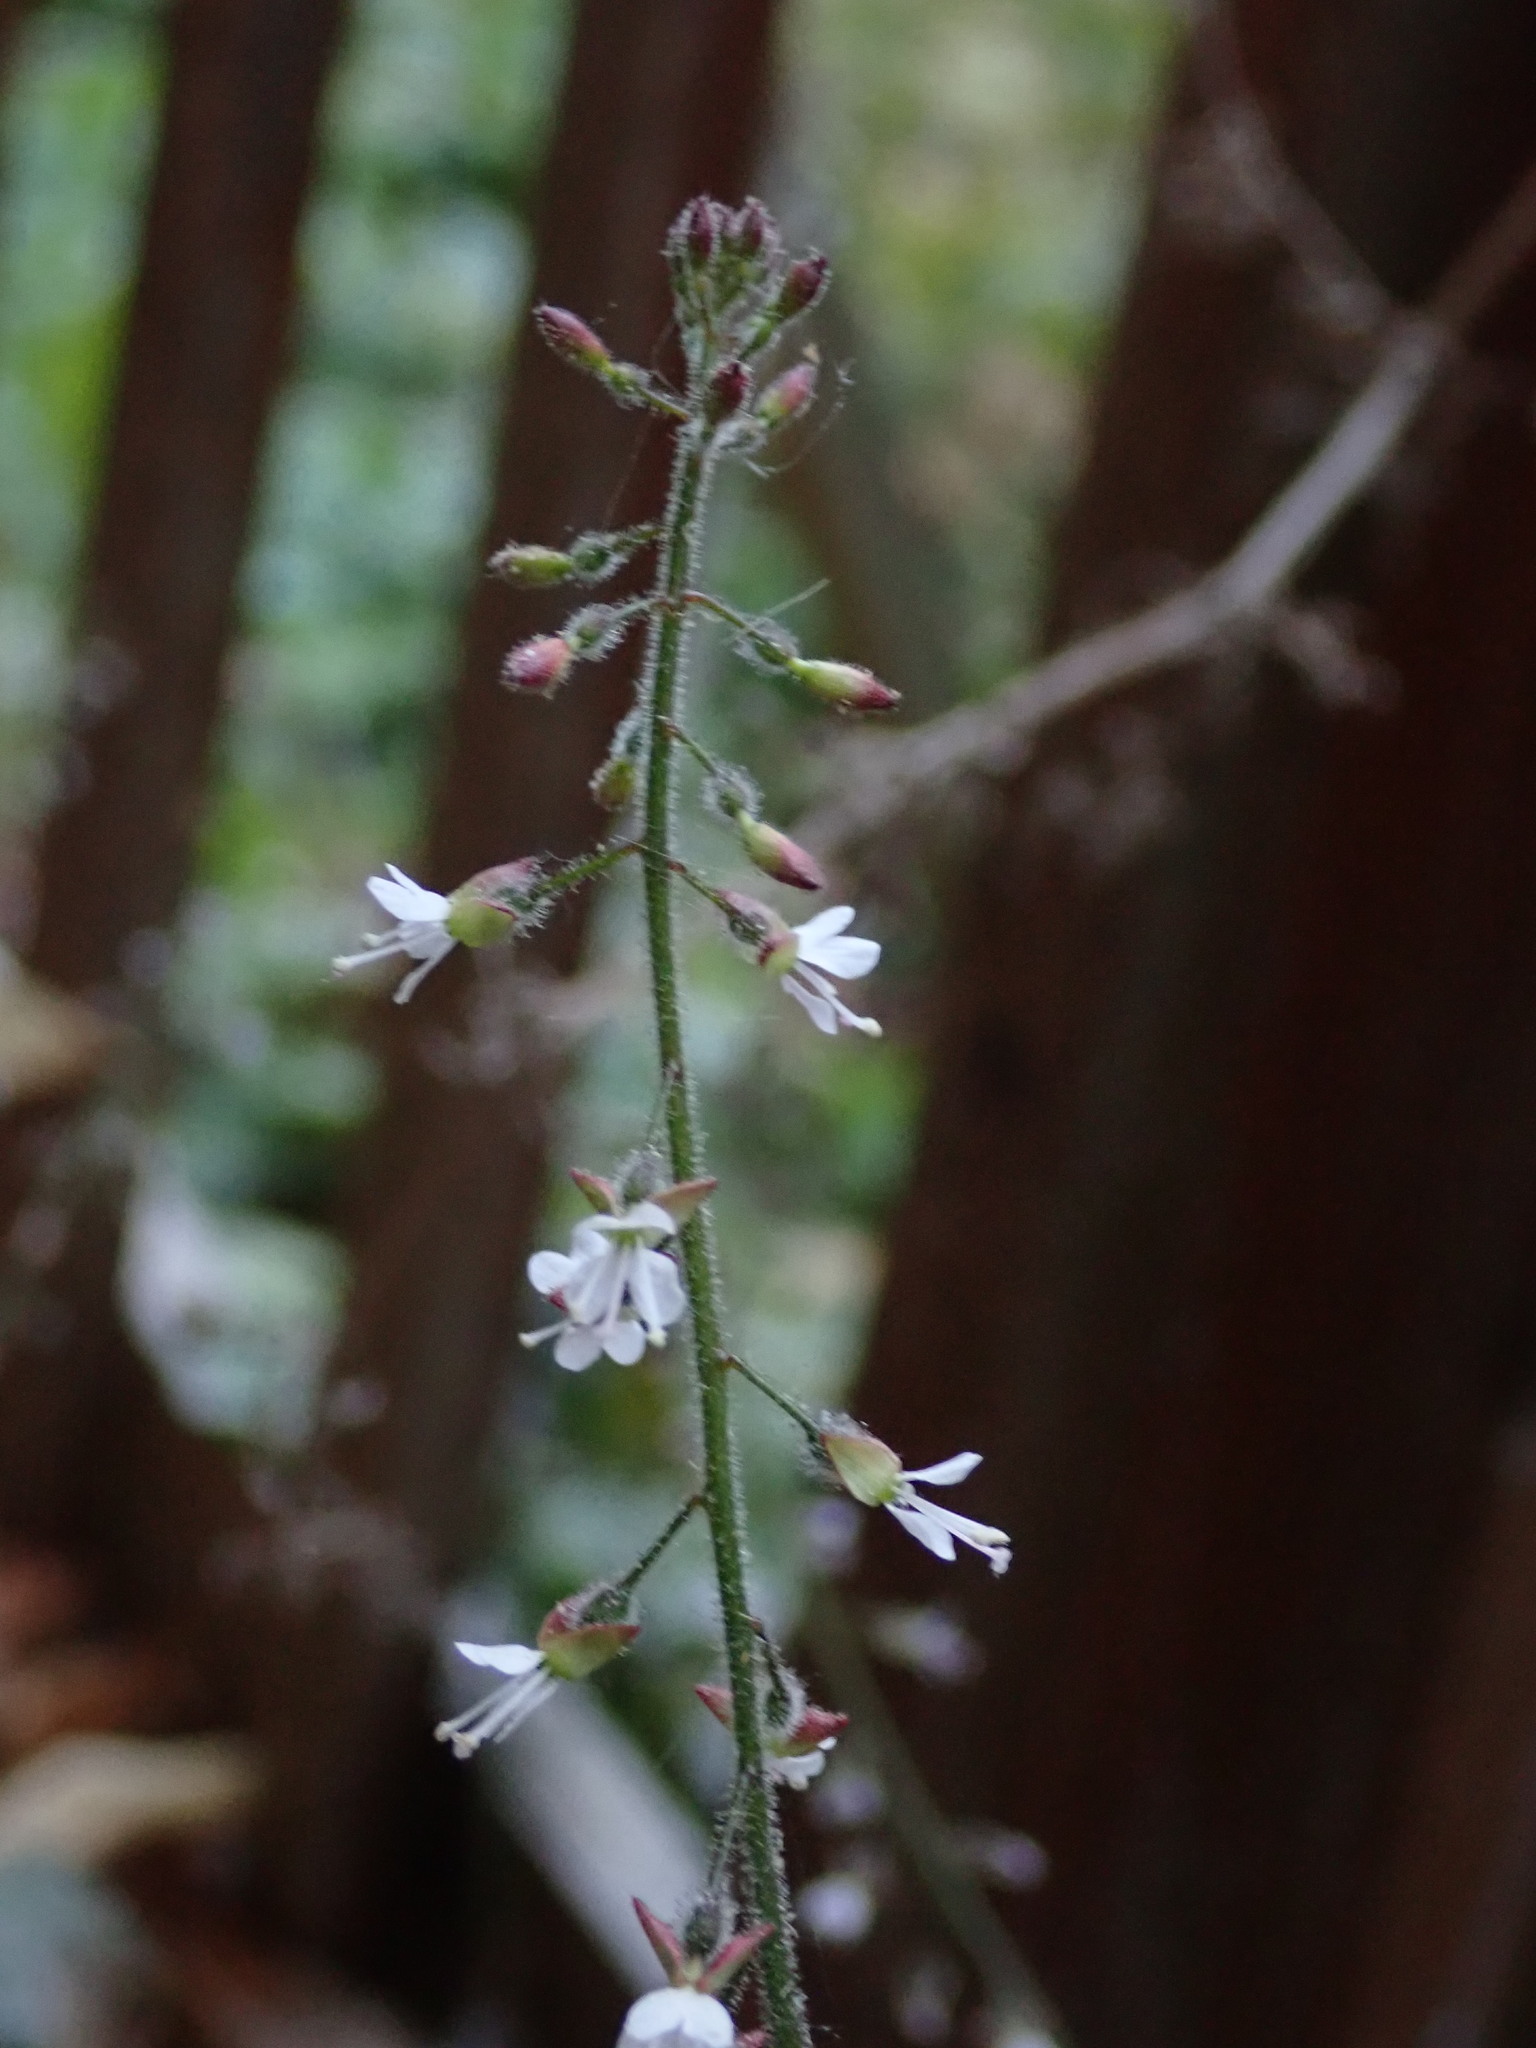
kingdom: Plantae
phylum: Tracheophyta
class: Magnoliopsida
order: Myrtales
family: Onagraceae
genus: Circaea
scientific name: Circaea lutetiana
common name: Enchanter's-nightshade
